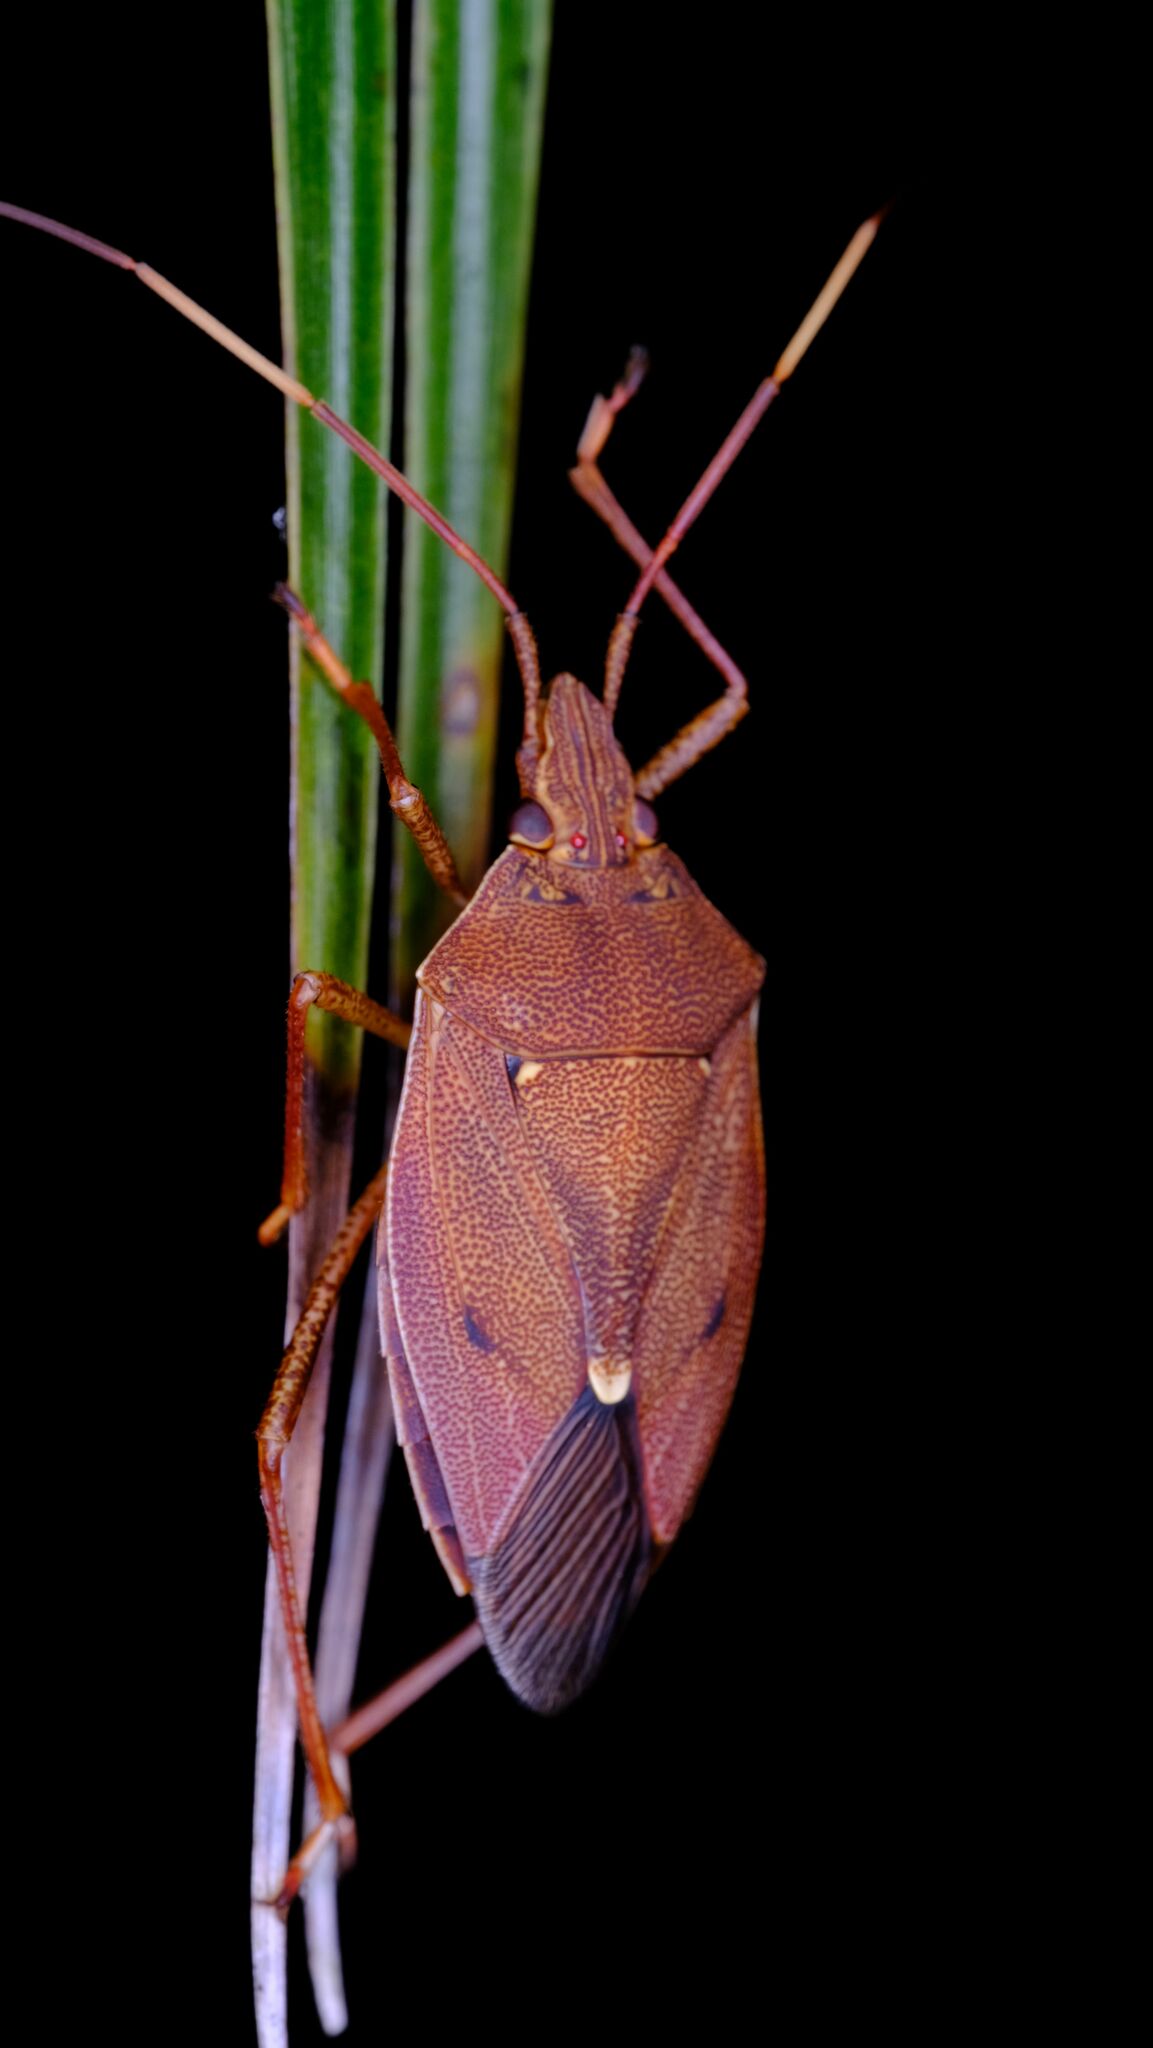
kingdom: Animalia
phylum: Arthropoda
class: Insecta
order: Hemiptera
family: Pentatomidae
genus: Poecilometis
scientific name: Poecilometis
